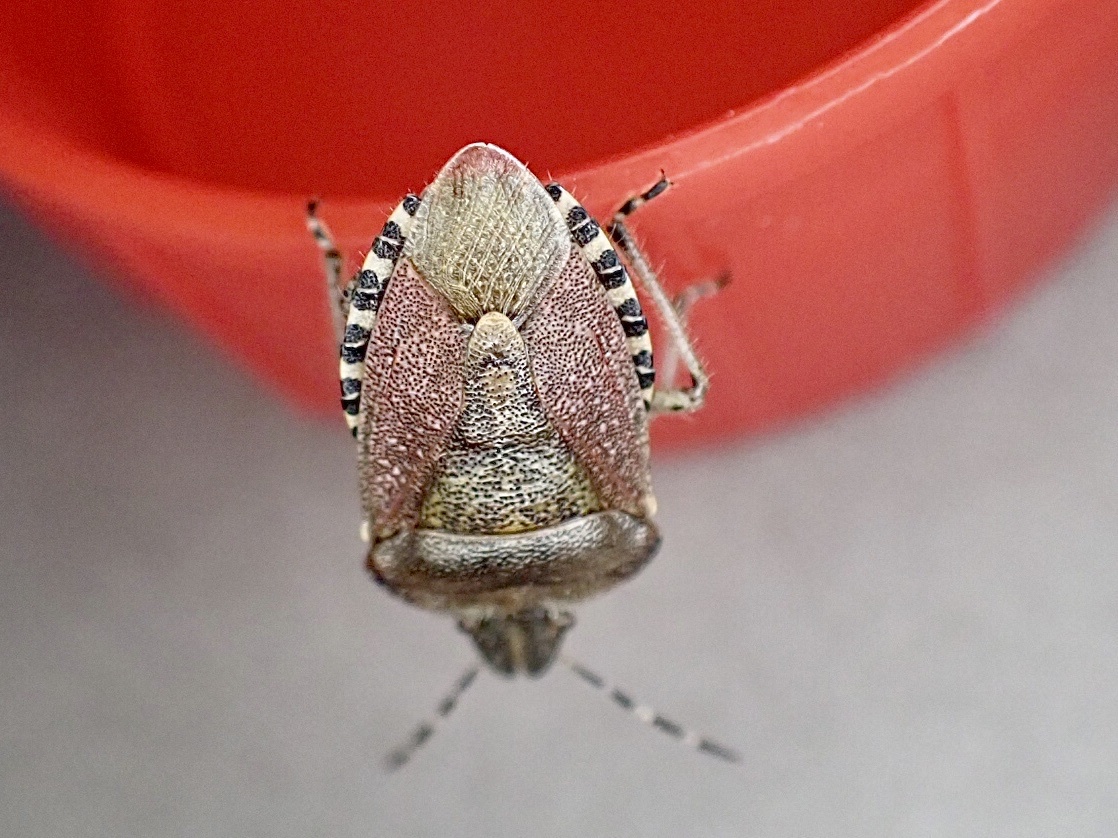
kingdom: Animalia
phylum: Arthropoda
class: Insecta
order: Hemiptera
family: Pentatomidae
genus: Dolycoris
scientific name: Dolycoris baccarum
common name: Sloe bug
